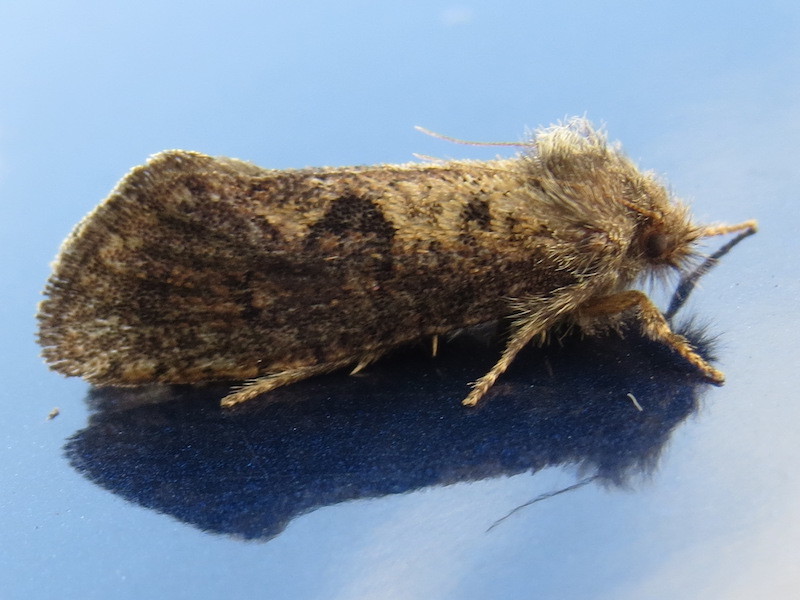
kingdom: Animalia
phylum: Arthropoda
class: Insecta
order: Lepidoptera
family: Tineidae
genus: Acrolophus
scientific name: Acrolophus mora
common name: Dark acrolophus
